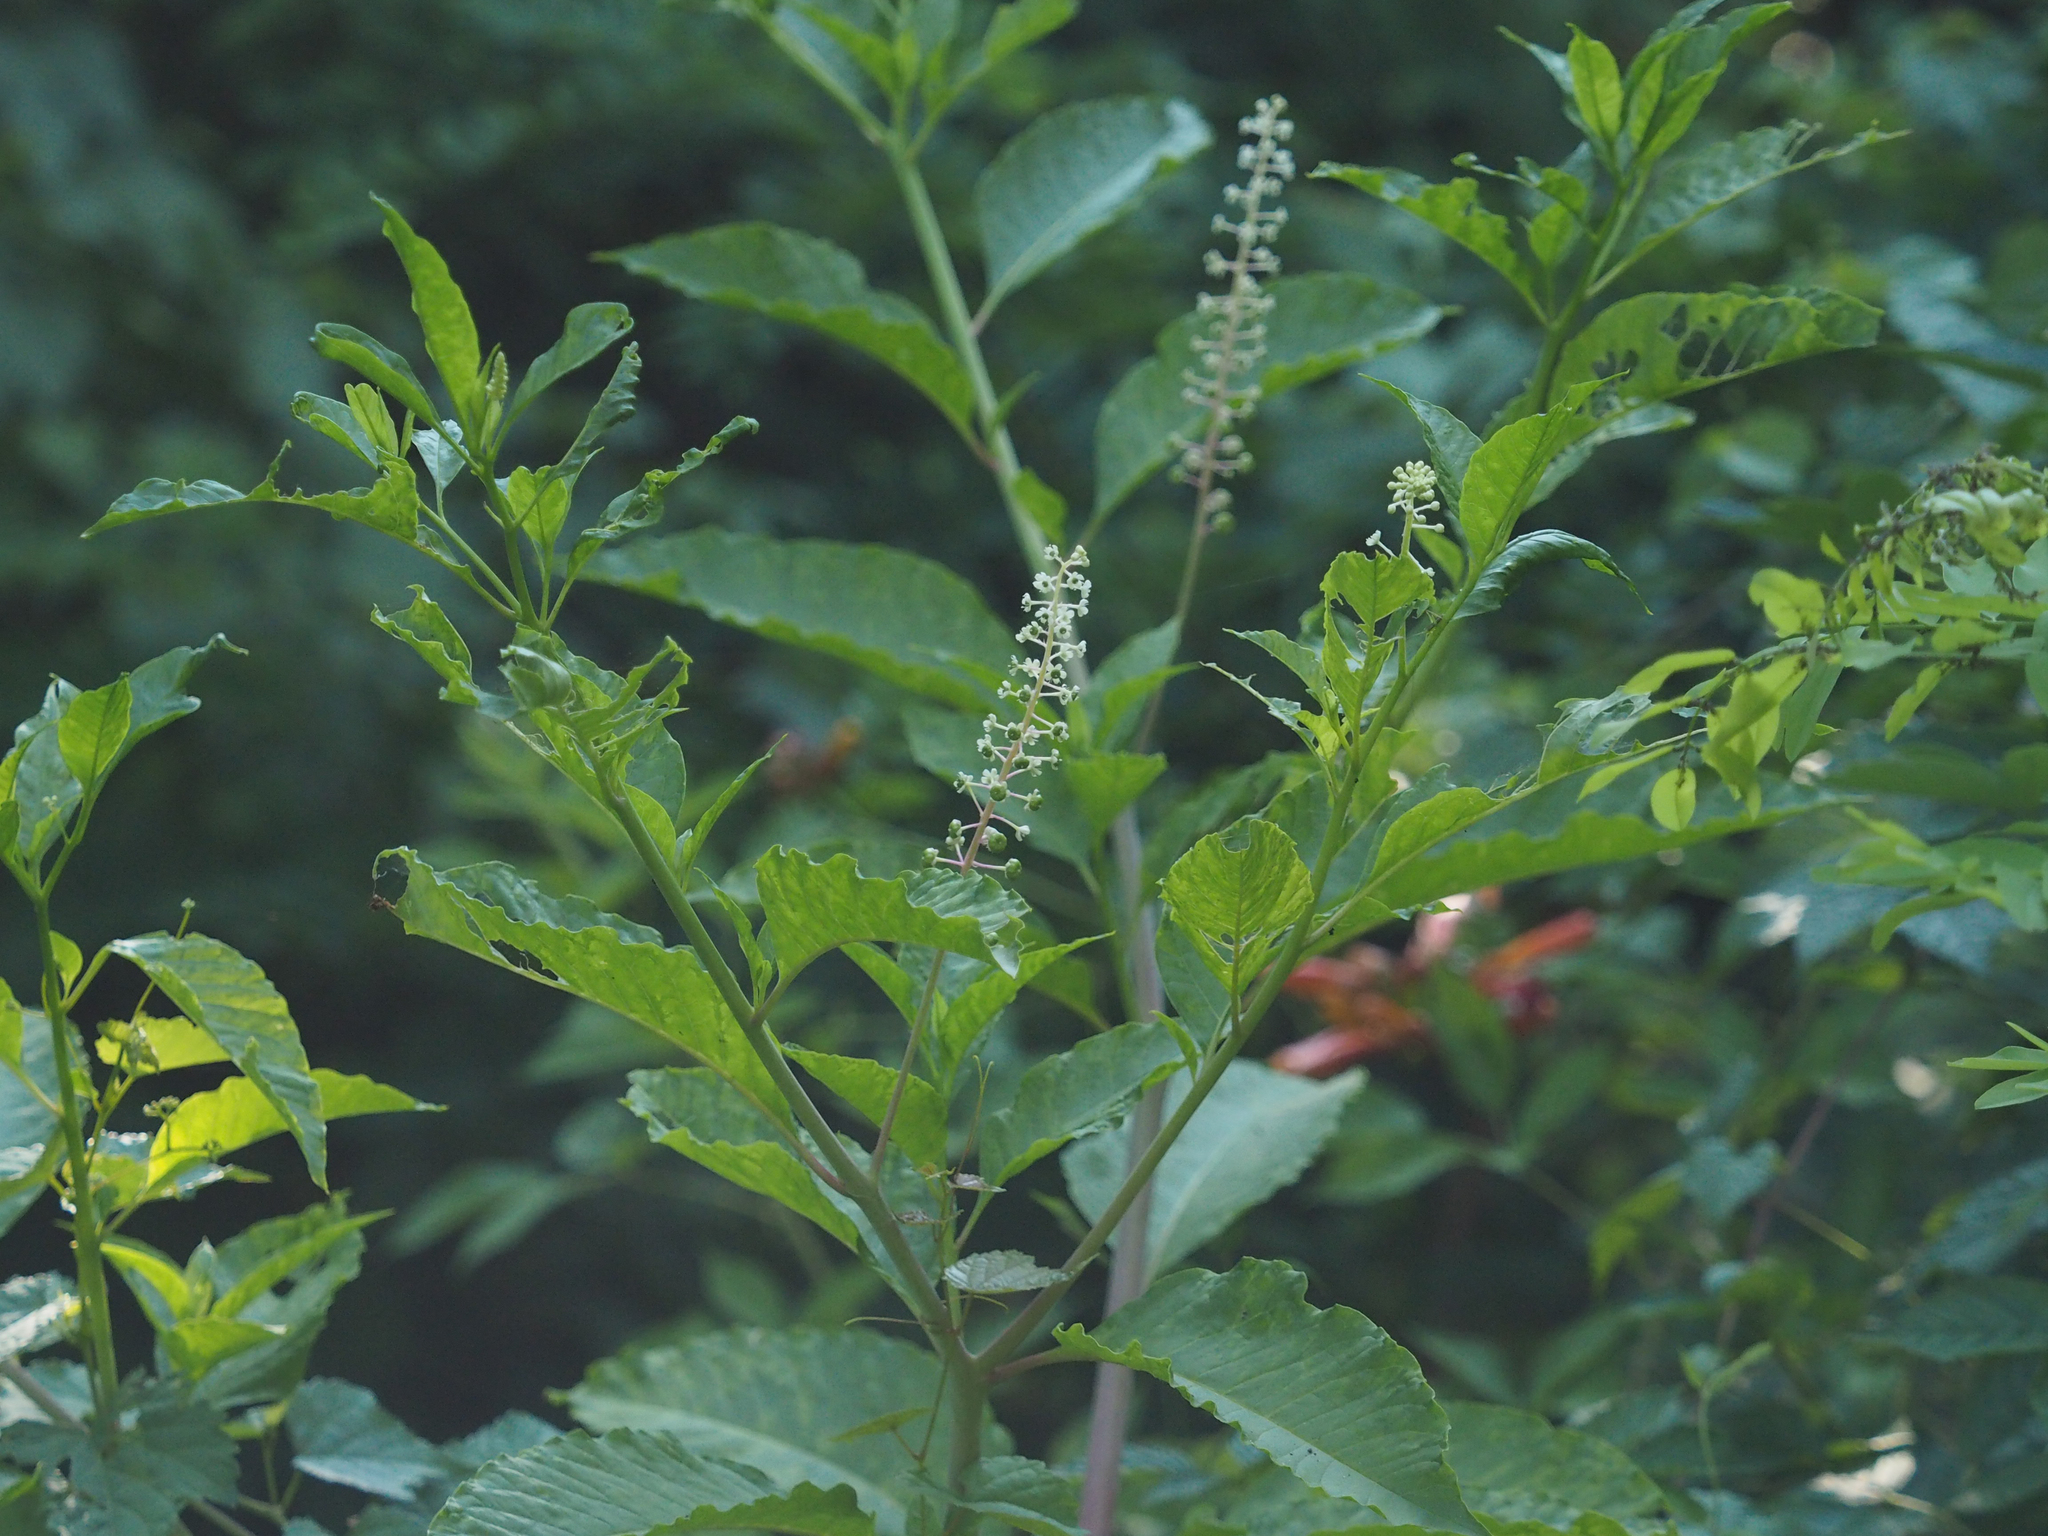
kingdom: Plantae
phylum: Tracheophyta
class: Magnoliopsida
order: Caryophyllales
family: Phytolaccaceae
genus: Phytolacca
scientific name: Phytolacca americana
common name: American pokeweed
